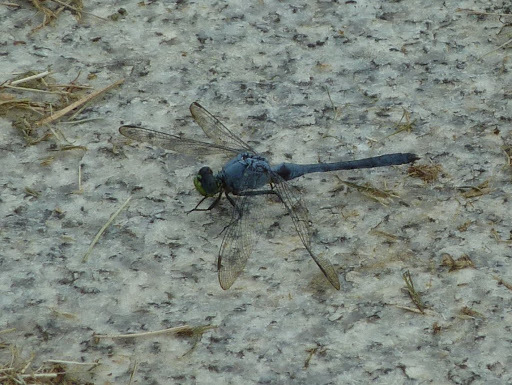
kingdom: Animalia
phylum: Arthropoda
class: Insecta
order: Odonata
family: Libellulidae
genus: Erythemis
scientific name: Erythemis simplicicollis
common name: Eastern pondhawk
